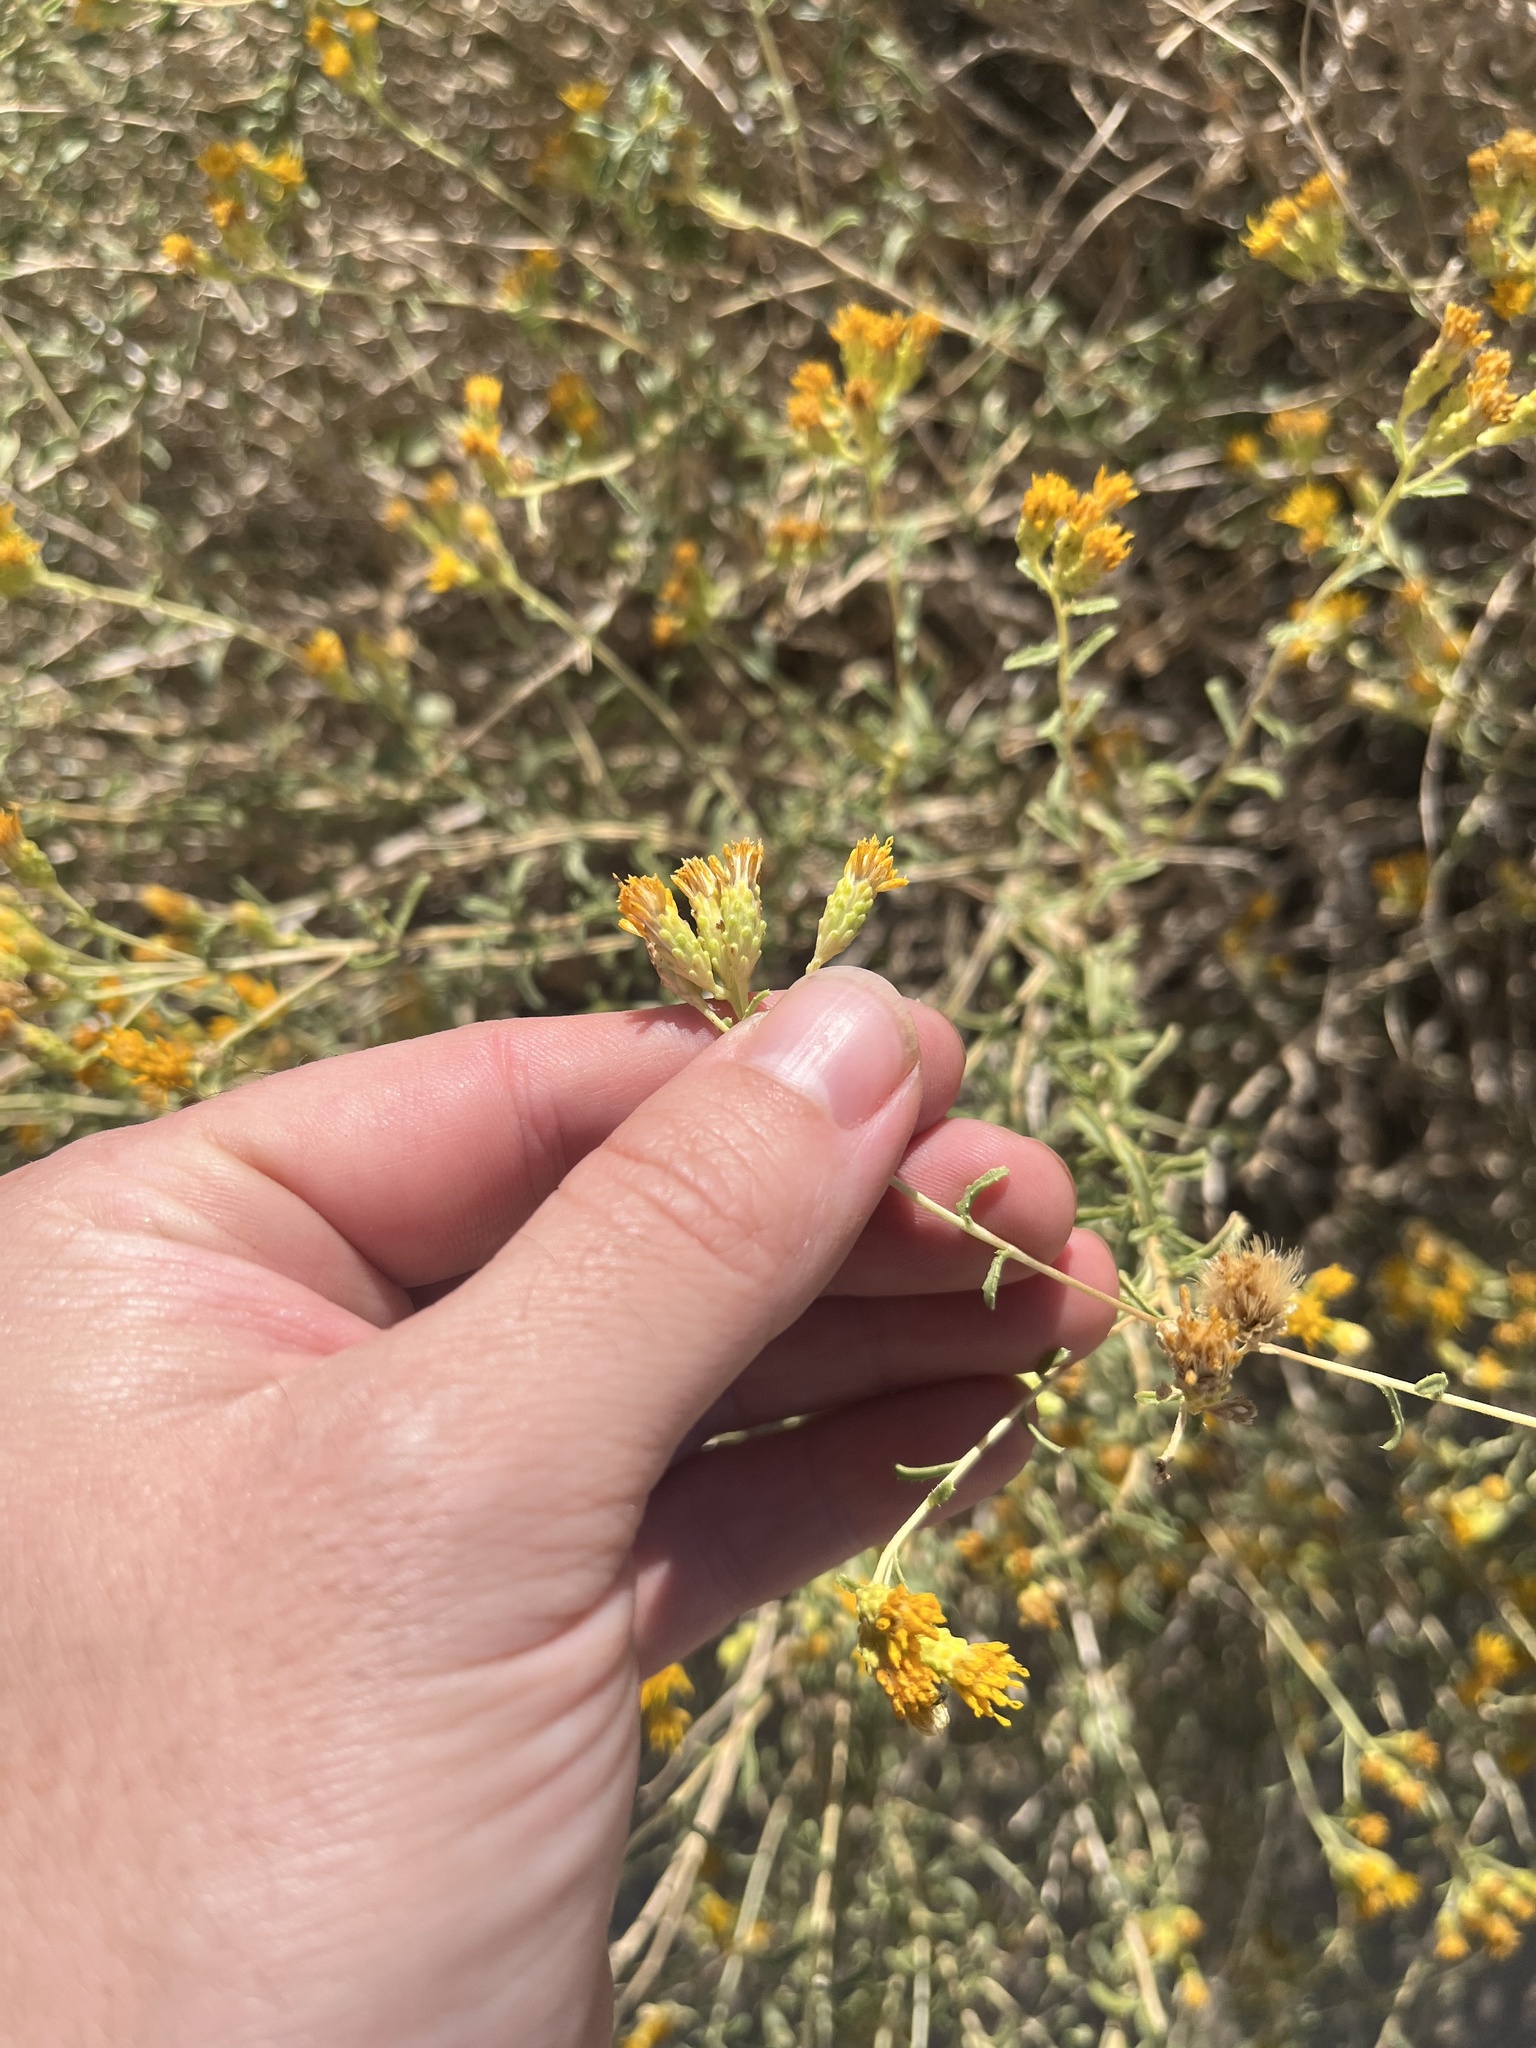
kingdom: Plantae
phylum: Tracheophyta
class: Magnoliopsida
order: Asterales
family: Asteraceae
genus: Isocoma
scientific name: Isocoma acradenia
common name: Alkali jimmyweed
